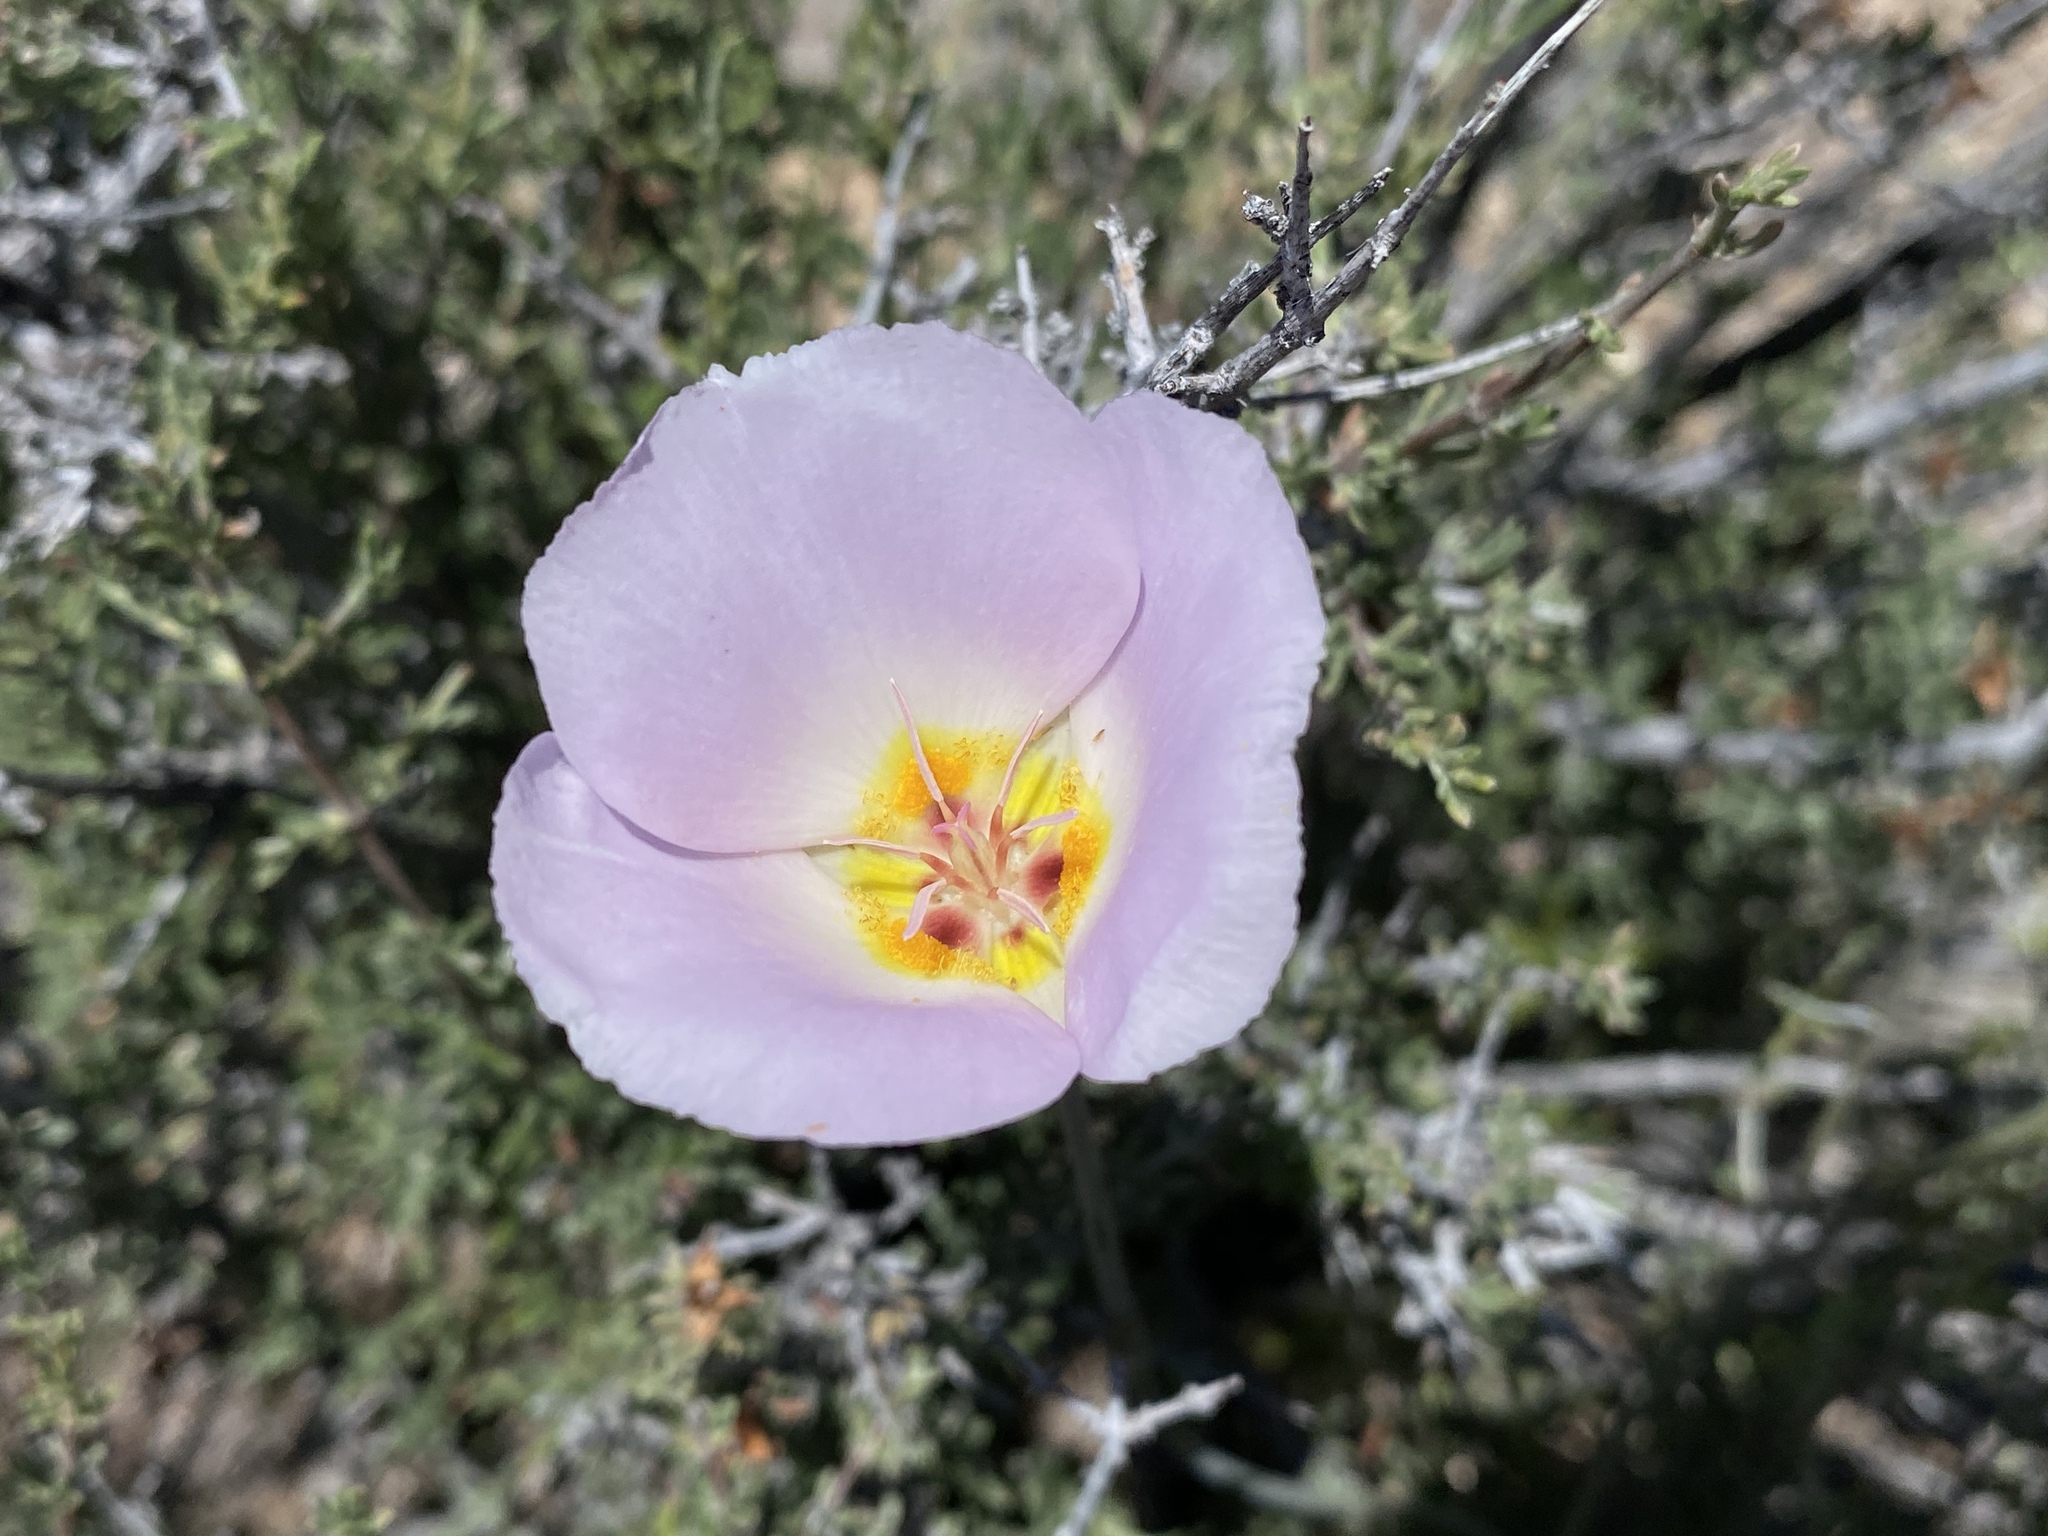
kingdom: Plantae
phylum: Tracheophyta
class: Liliopsida
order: Liliales
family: Liliaceae
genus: Calochortus
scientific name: Calochortus flexuosus
